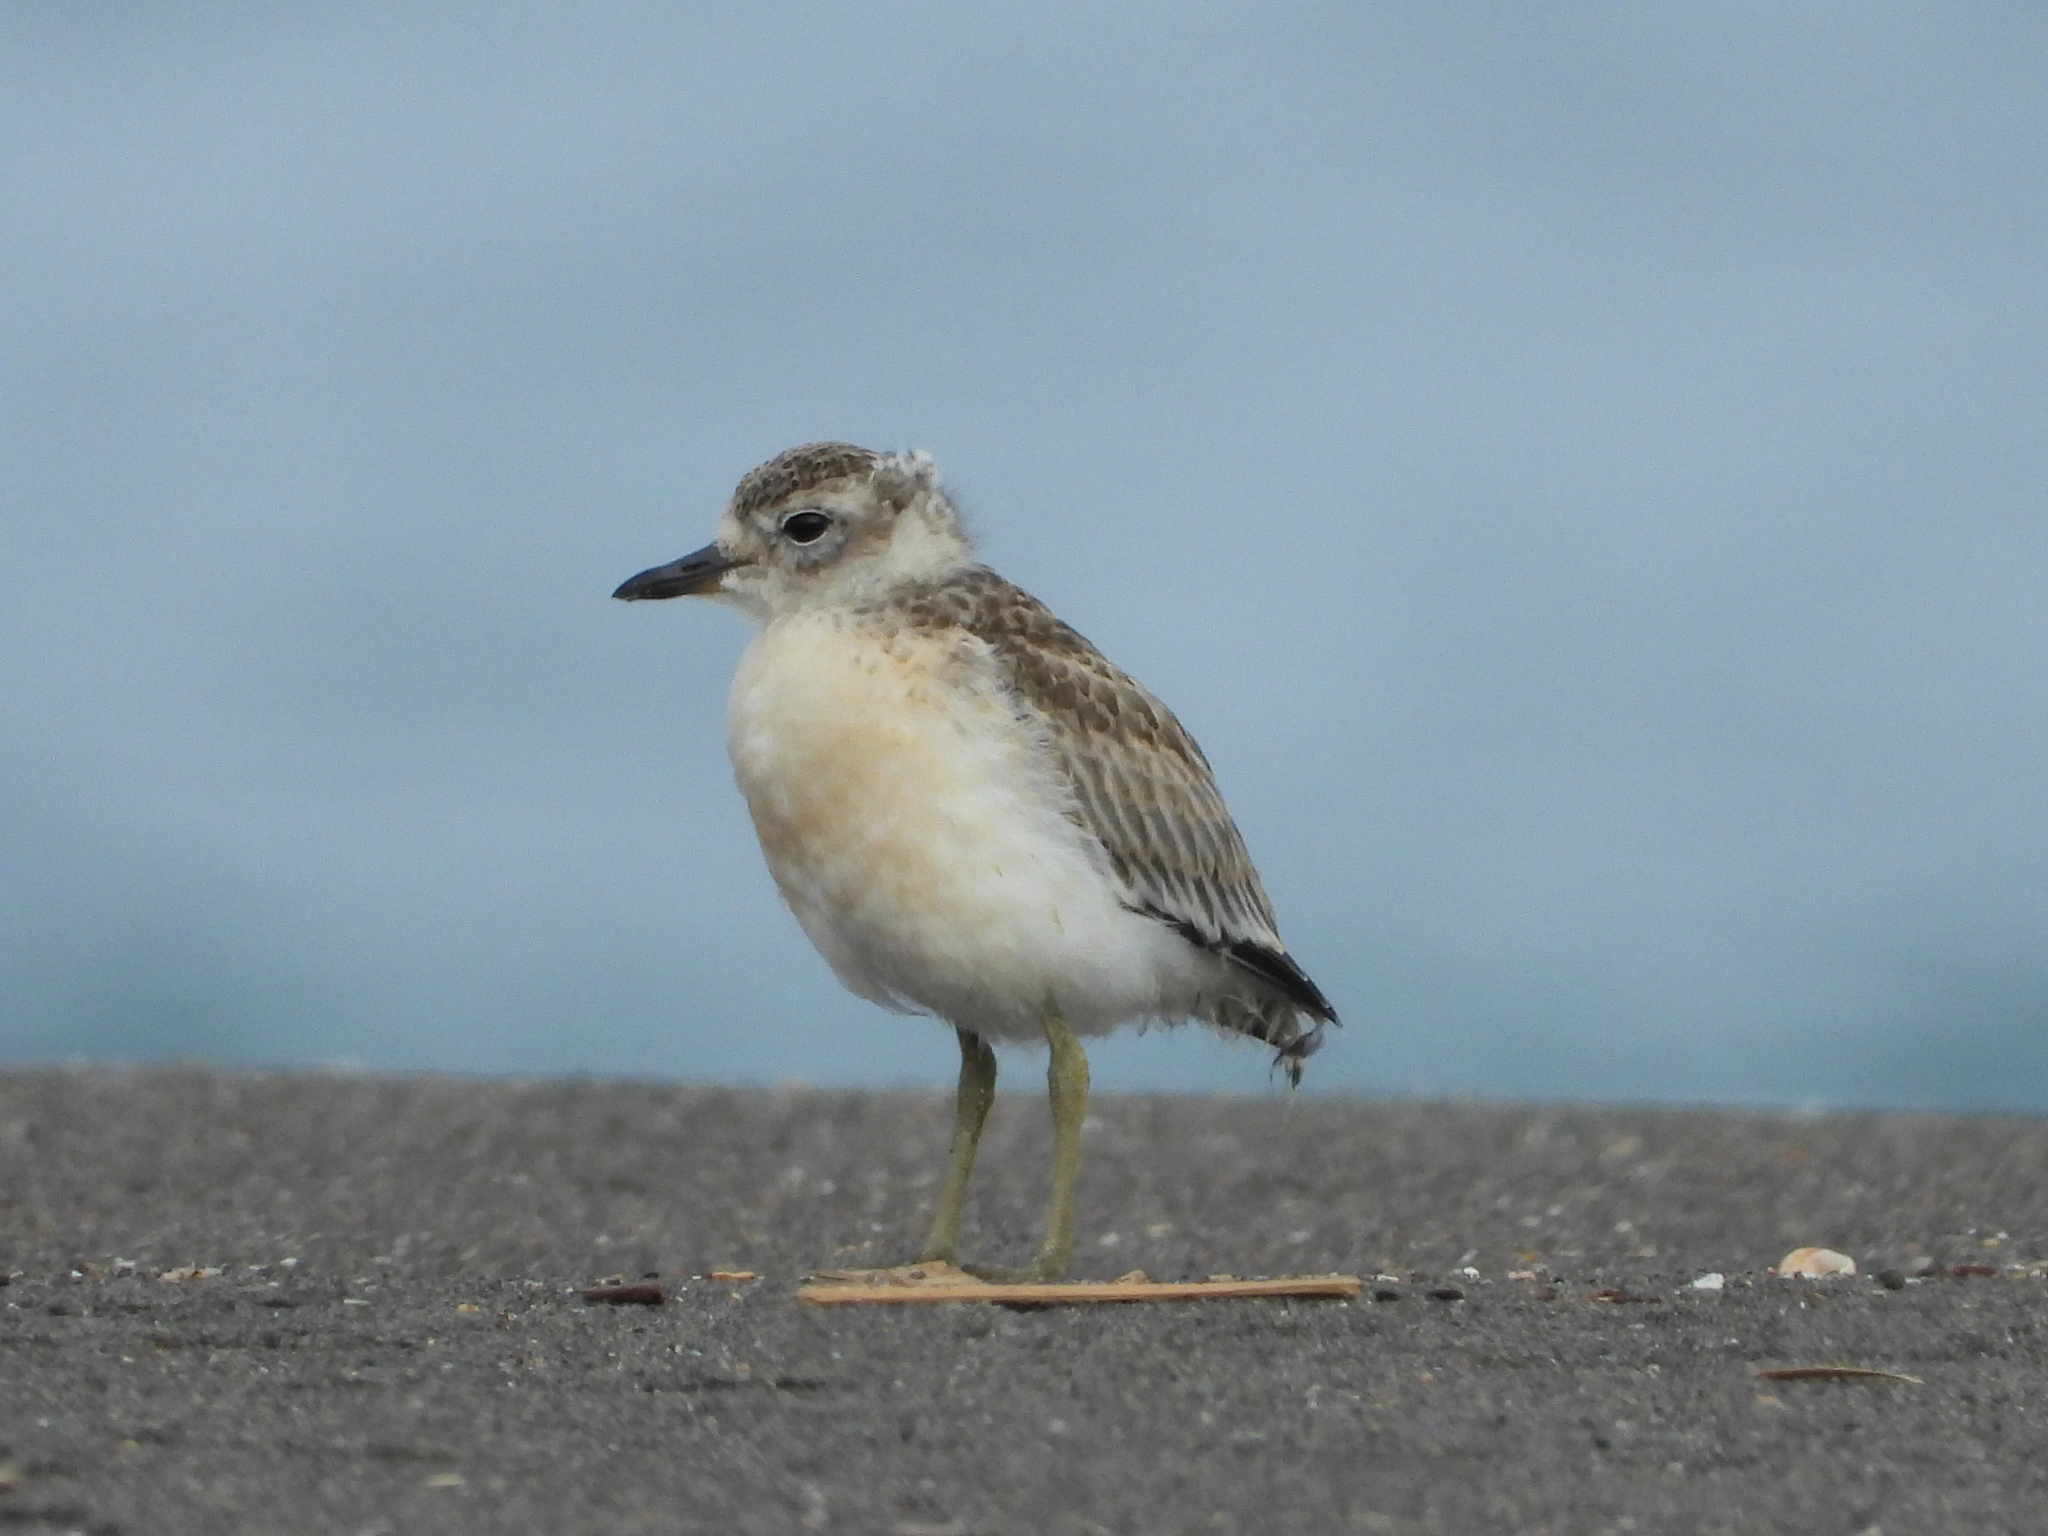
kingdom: Animalia
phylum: Chordata
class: Aves
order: Charadriiformes
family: Charadriidae
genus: Anarhynchus
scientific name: Anarhynchus
